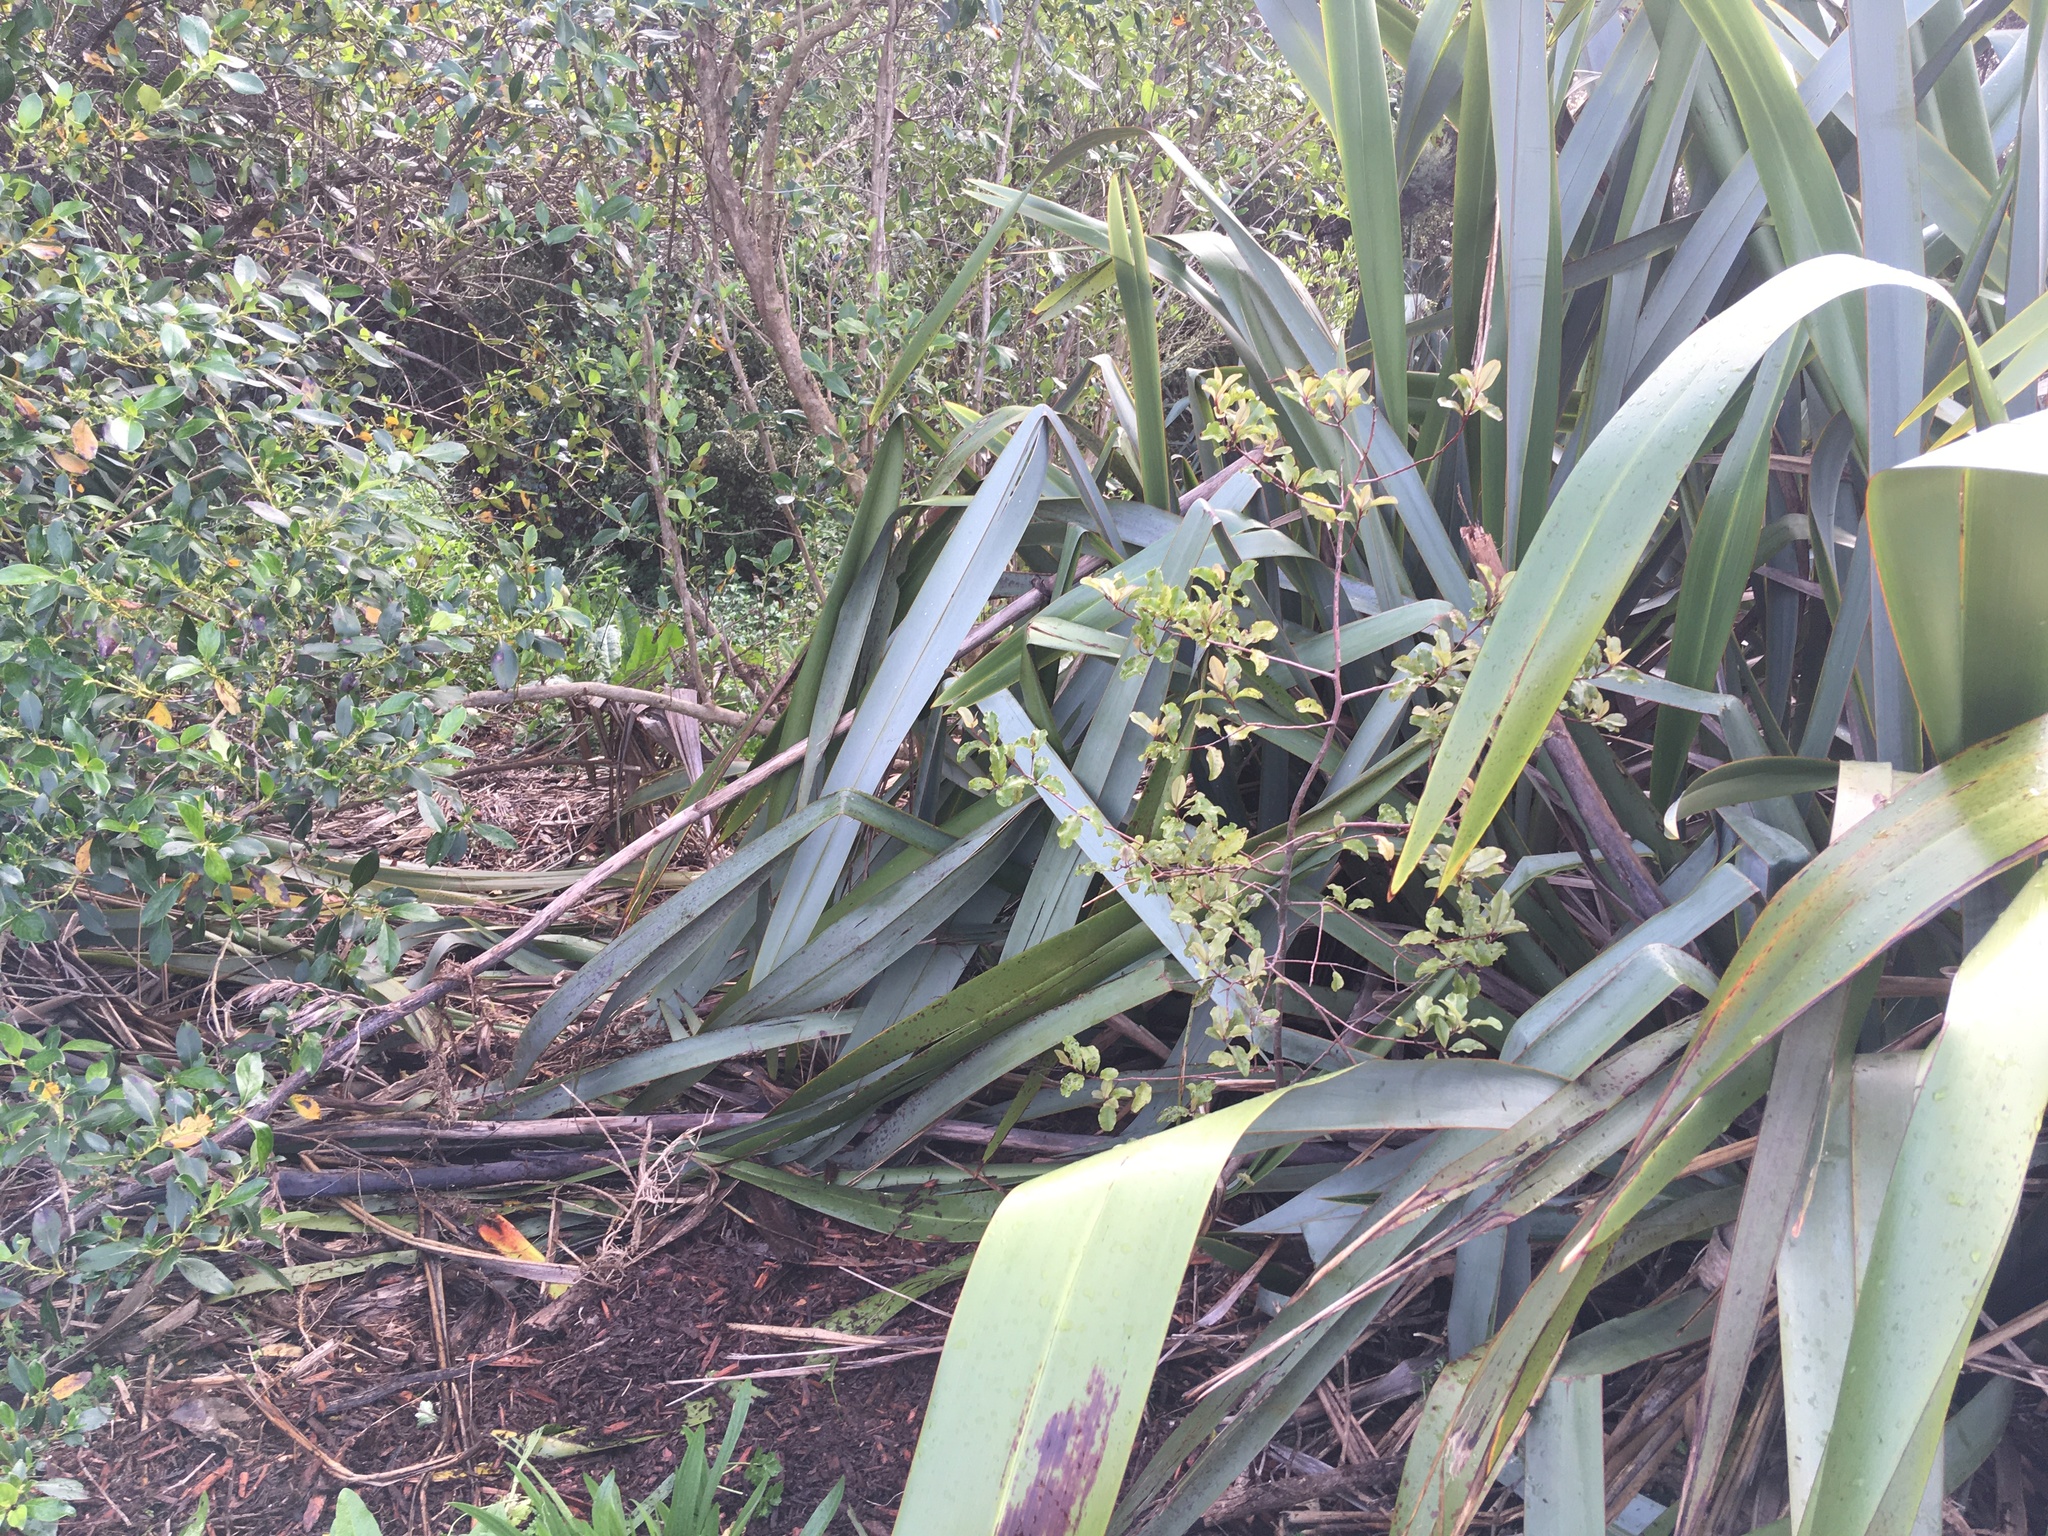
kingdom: Plantae
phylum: Tracheophyta
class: Magnoliopsida
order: Ericales
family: Primulaceae
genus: Myrsine
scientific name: Myrsine australis
